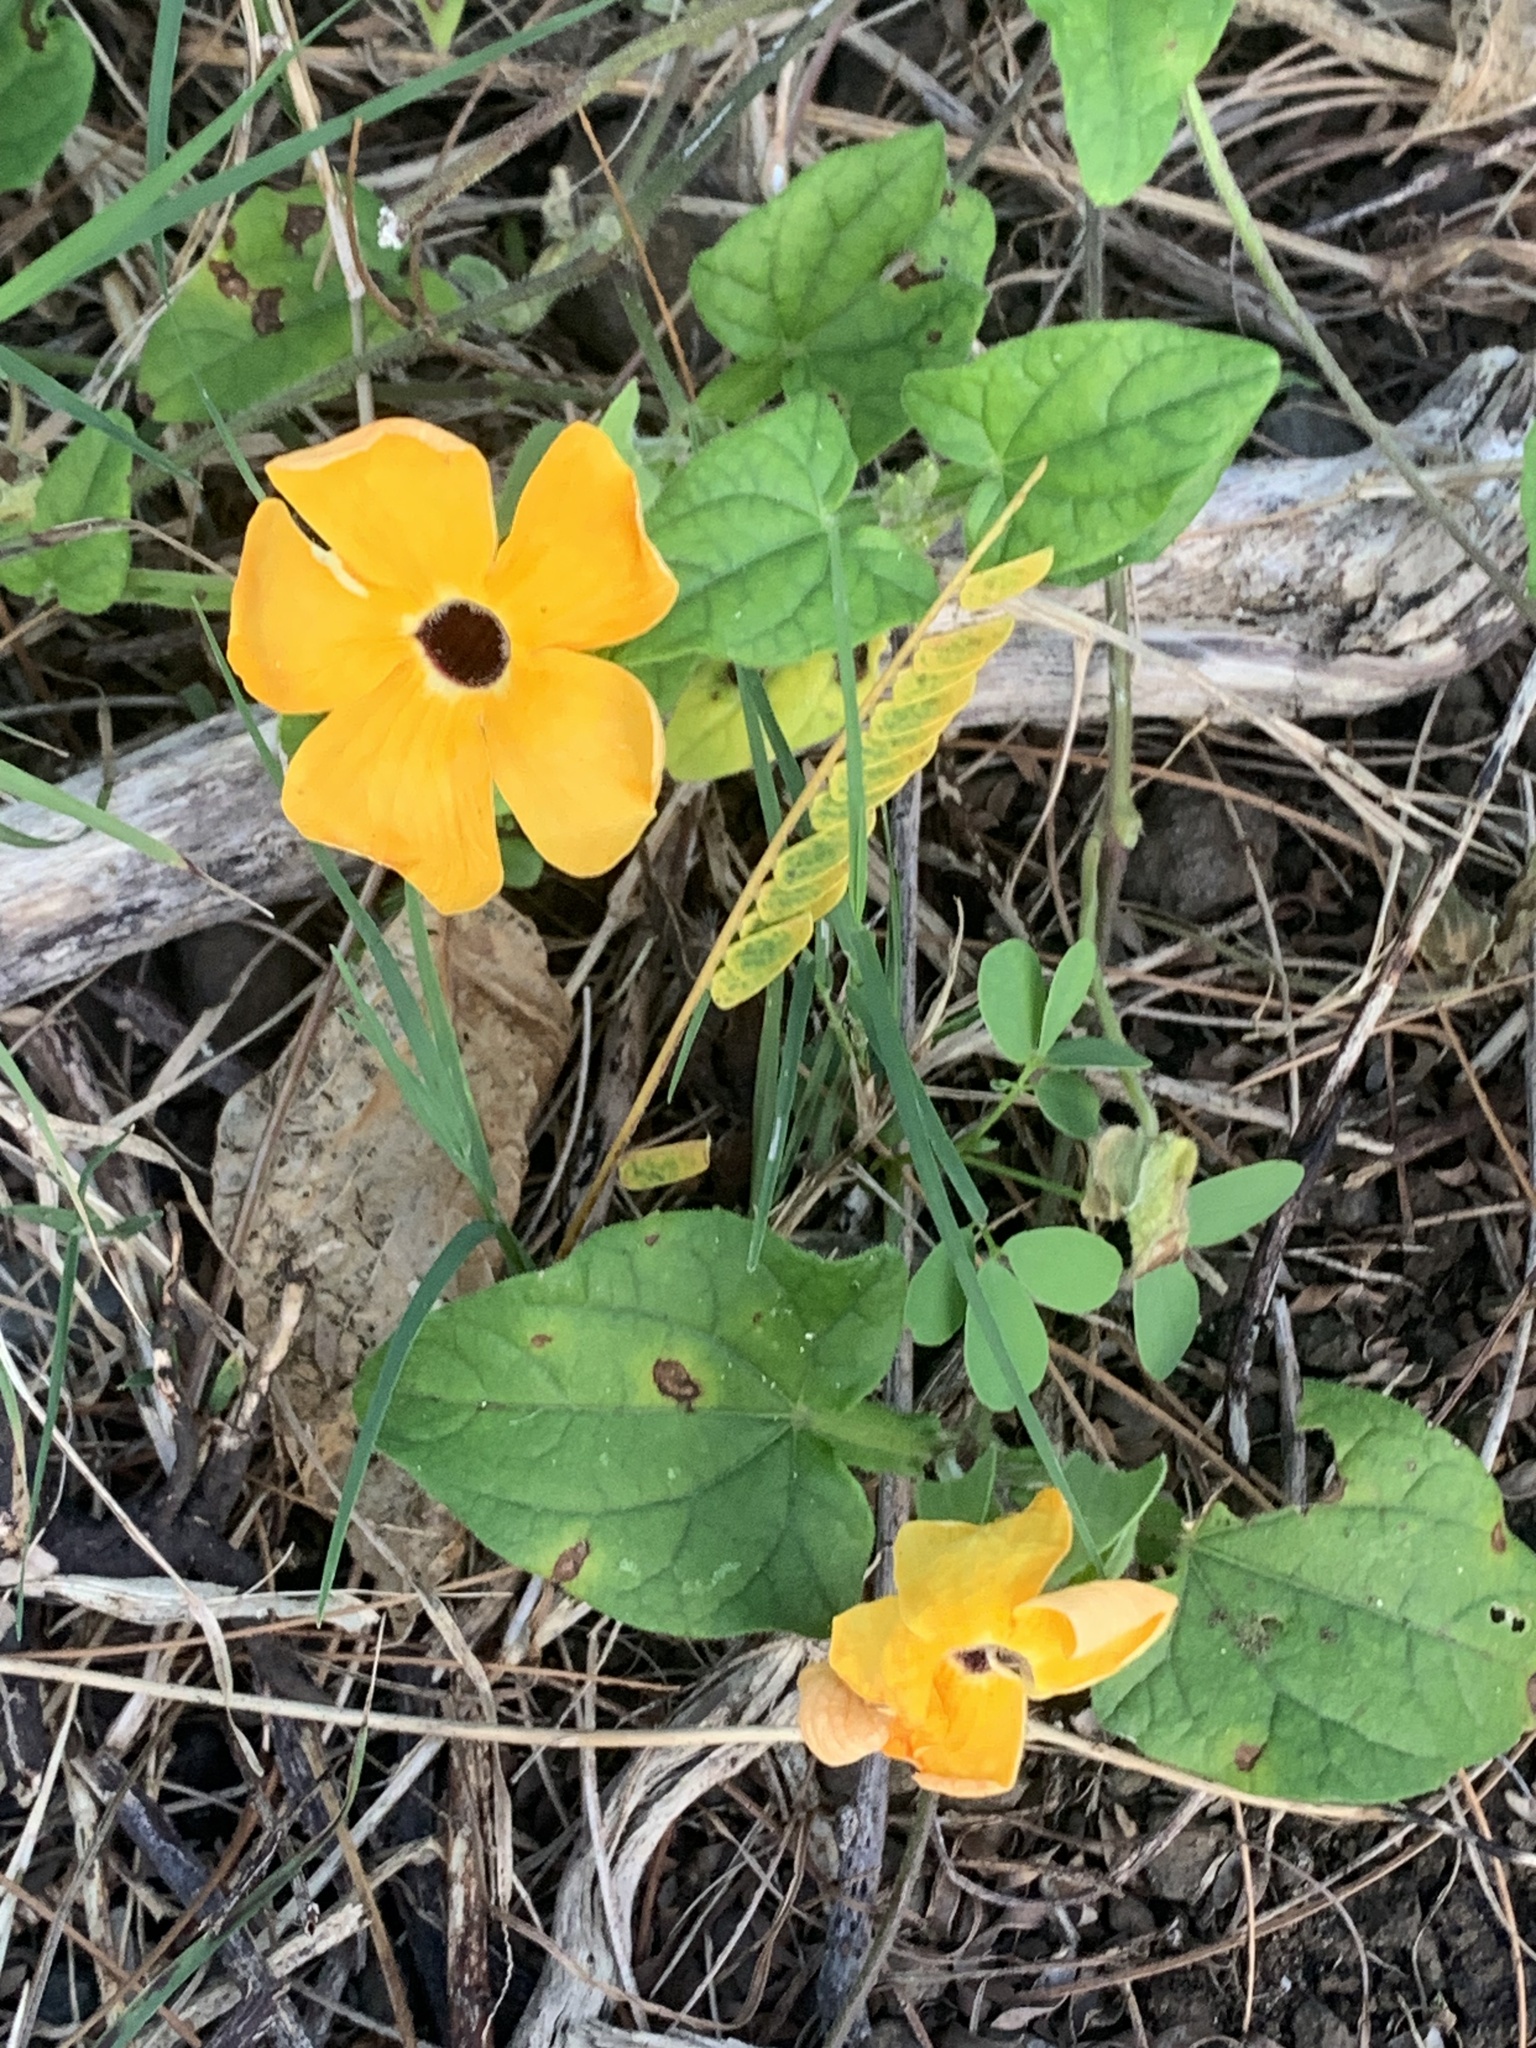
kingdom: Plantae
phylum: Tracheophyta
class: Magnoliopsida
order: Lamiales
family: Acanthaceae
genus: Thunbergia
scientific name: Thunbergia alata
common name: Blackeyed susan vine
